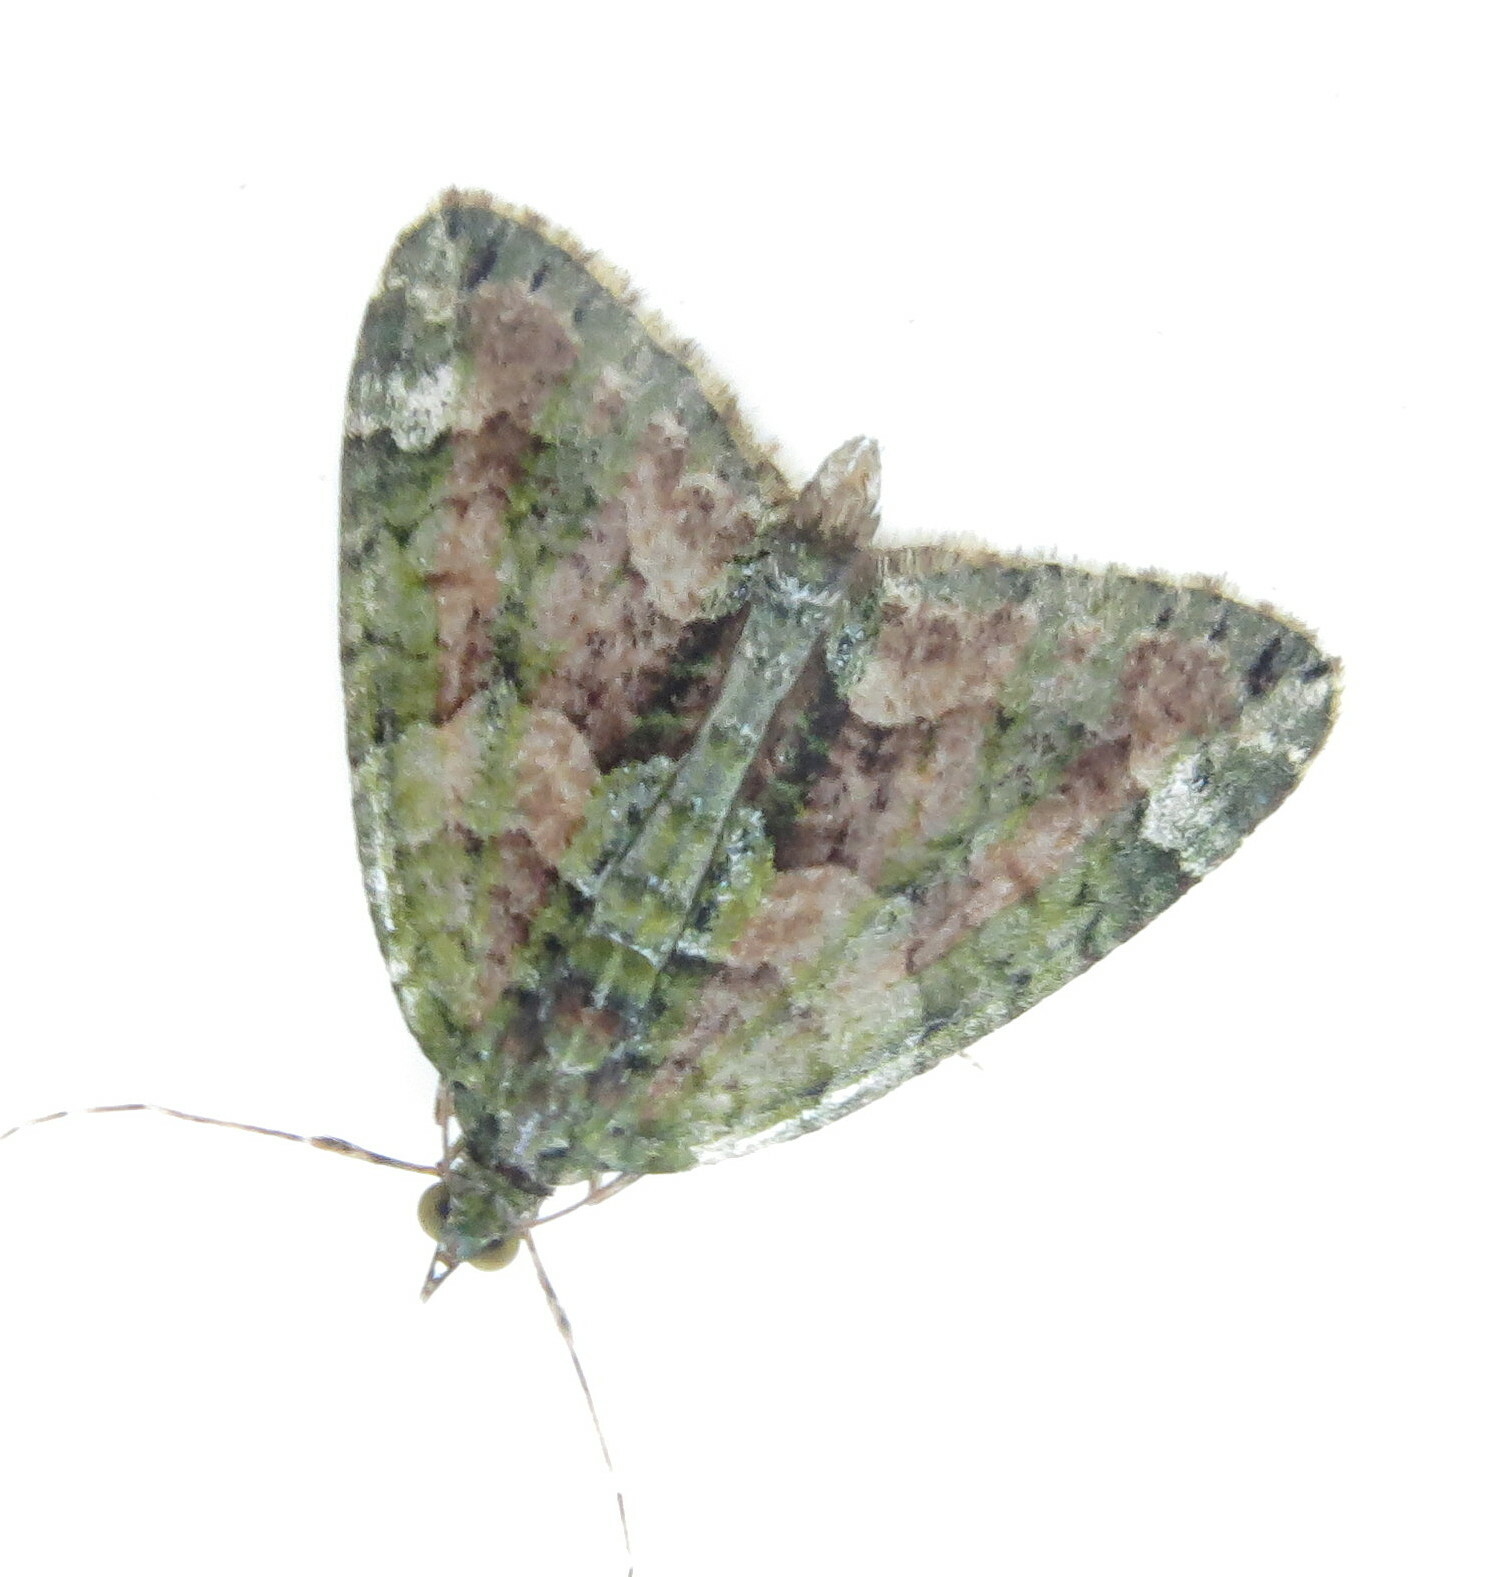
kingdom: Animalia
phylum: Arthropoda
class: Insecta
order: Lepidoptera
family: Geometridae
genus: Chloroclysta
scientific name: Chloroclysta siterata
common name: Red-green carpet
